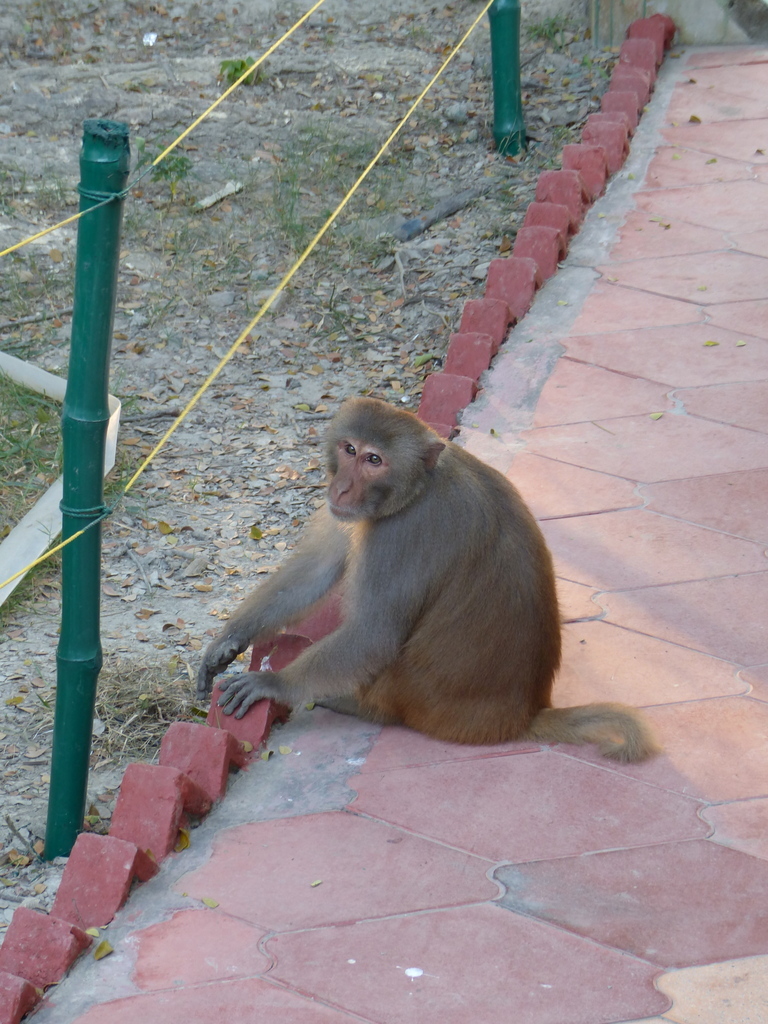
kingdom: Animalia
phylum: Chordata
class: Mammalia
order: Primates
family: Cercopithecidae
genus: Macaca
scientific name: Macaca mulatta
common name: Rhesus monkey
